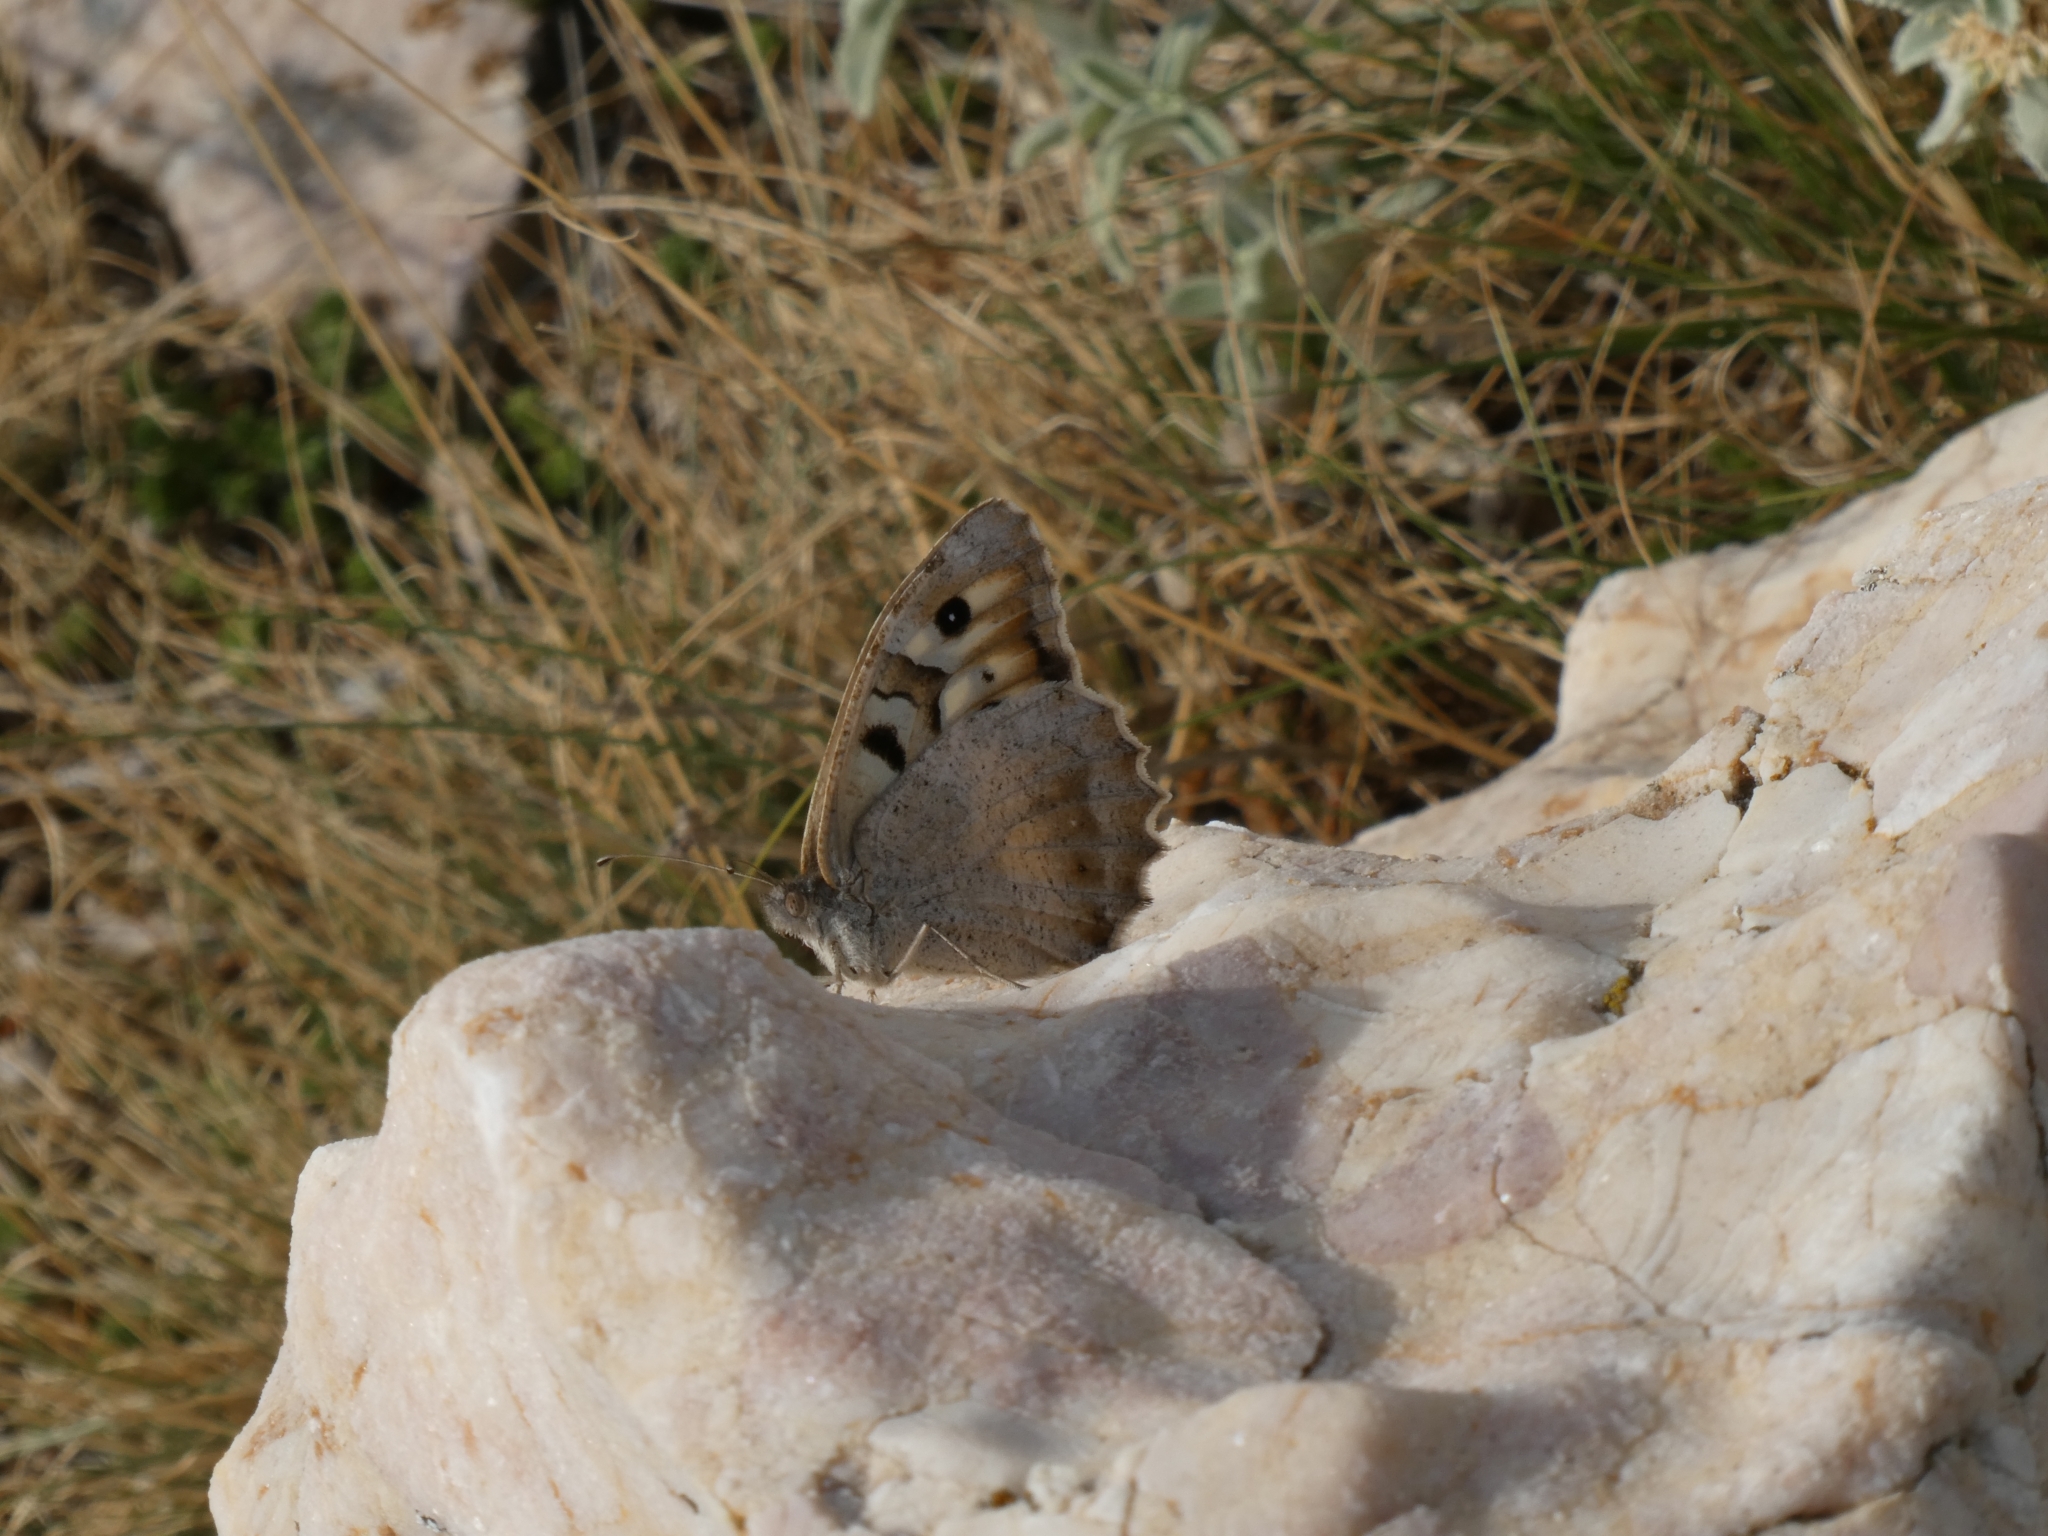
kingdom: Animalia
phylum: Arthropoda
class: Insecta
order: Lepidoptera
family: Nymphalidae
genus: Satyrus
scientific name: Satyrus briseis
